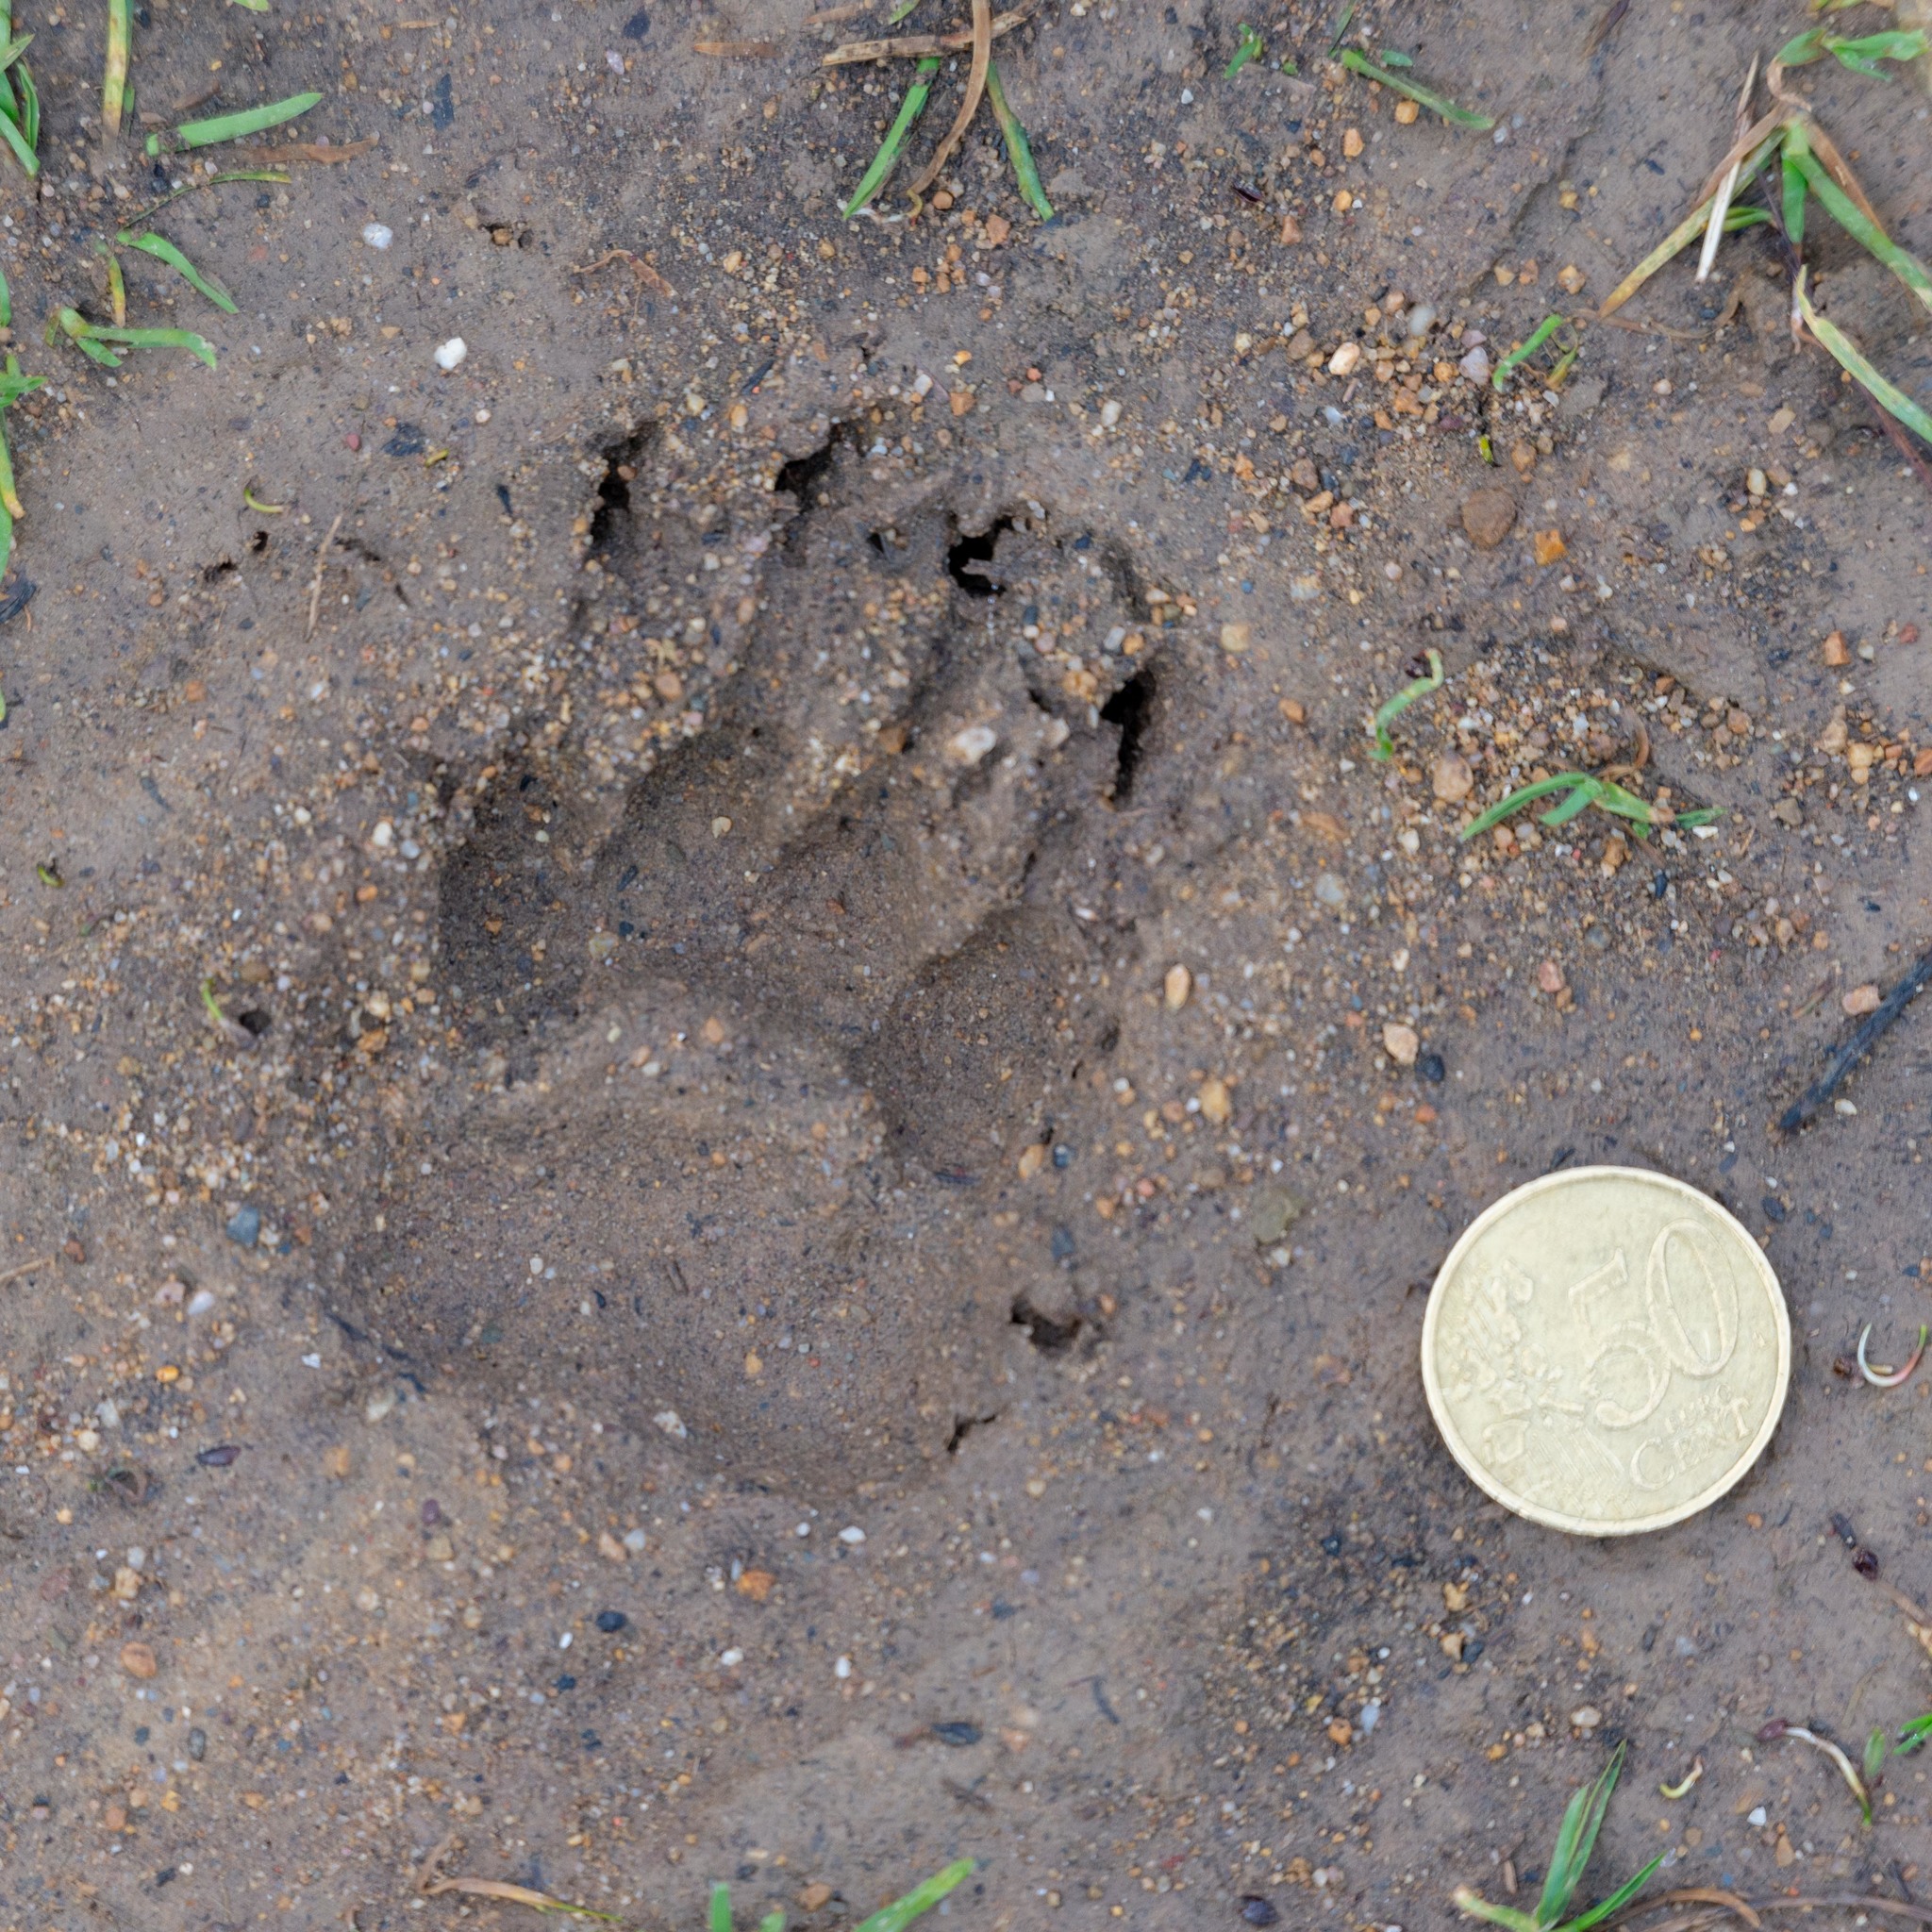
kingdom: Animalia
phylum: Chordata
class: Mammalia
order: Carnivora
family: Mustelidae
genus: Meles
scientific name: Meles meles
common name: Eurasian badger
